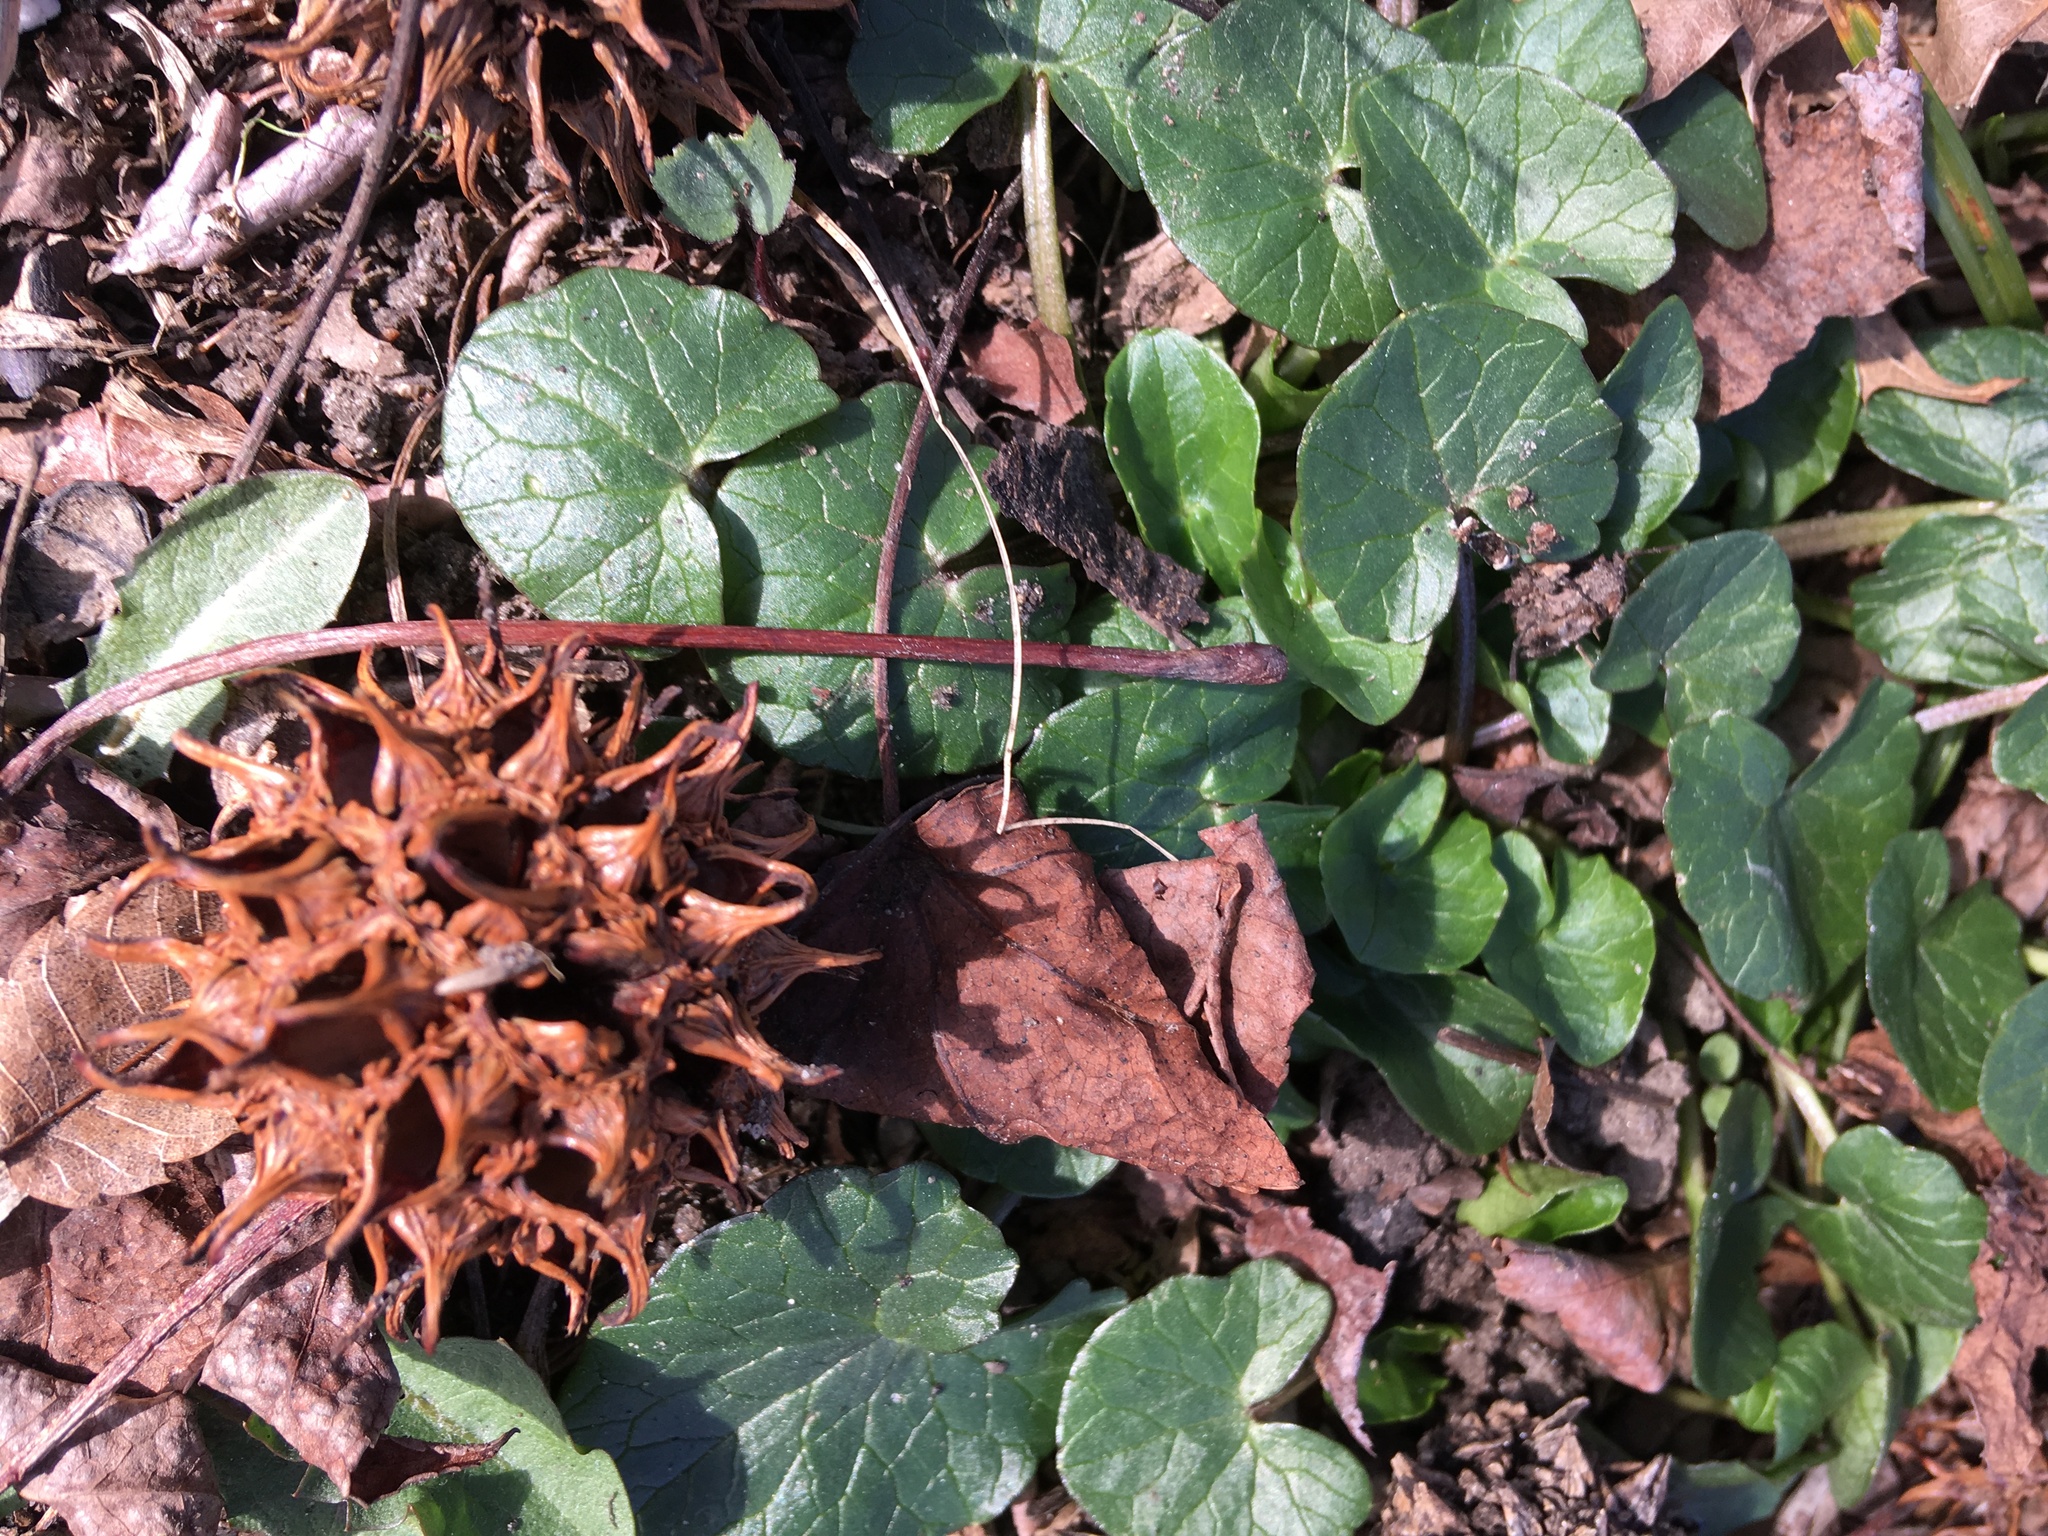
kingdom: Plantae
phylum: Tracheophyta
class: Magnoliopsida
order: Ranunculales
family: Ranunculaceae
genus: Ficaria
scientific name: Ficaria verna
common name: Lesser celandine
